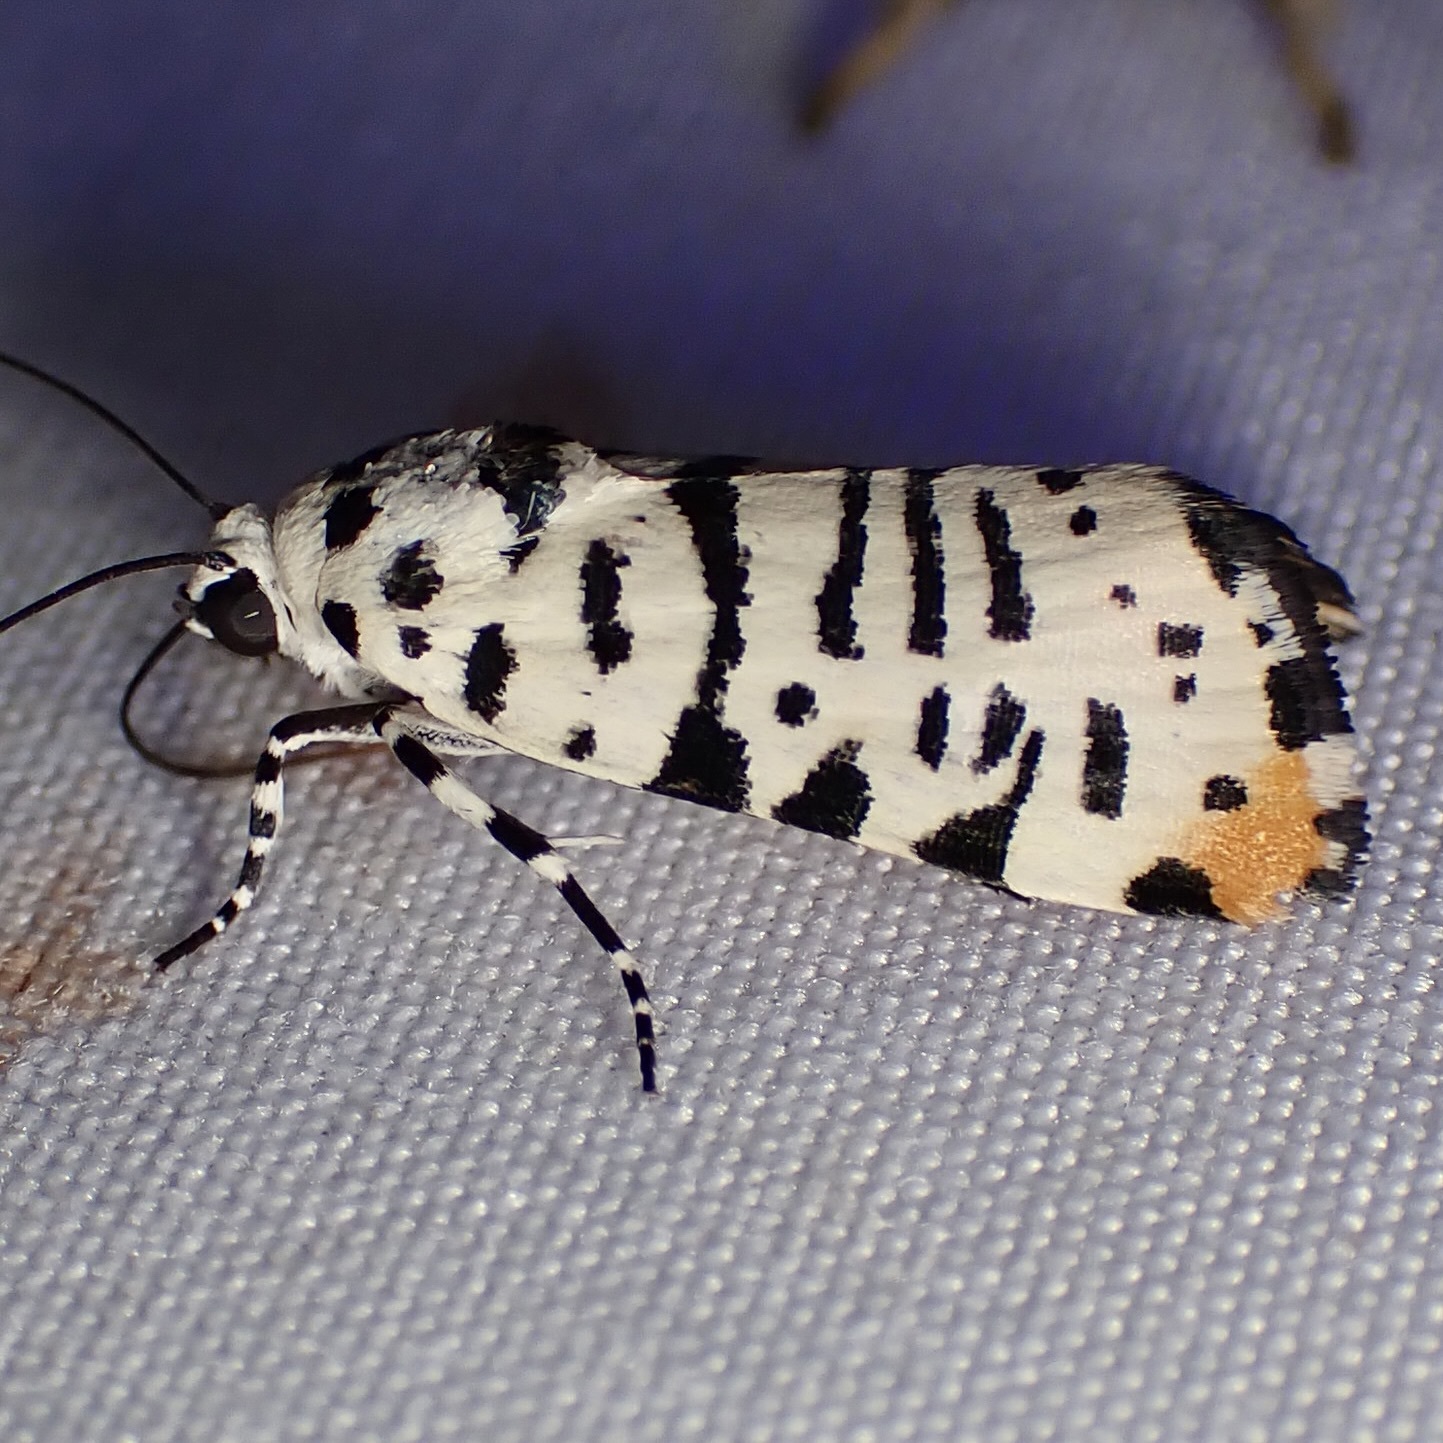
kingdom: Animalia
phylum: Arthropoda
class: Insecta
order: Lepidoptera
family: Noctuidae
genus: Acontia
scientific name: Acontia idella
